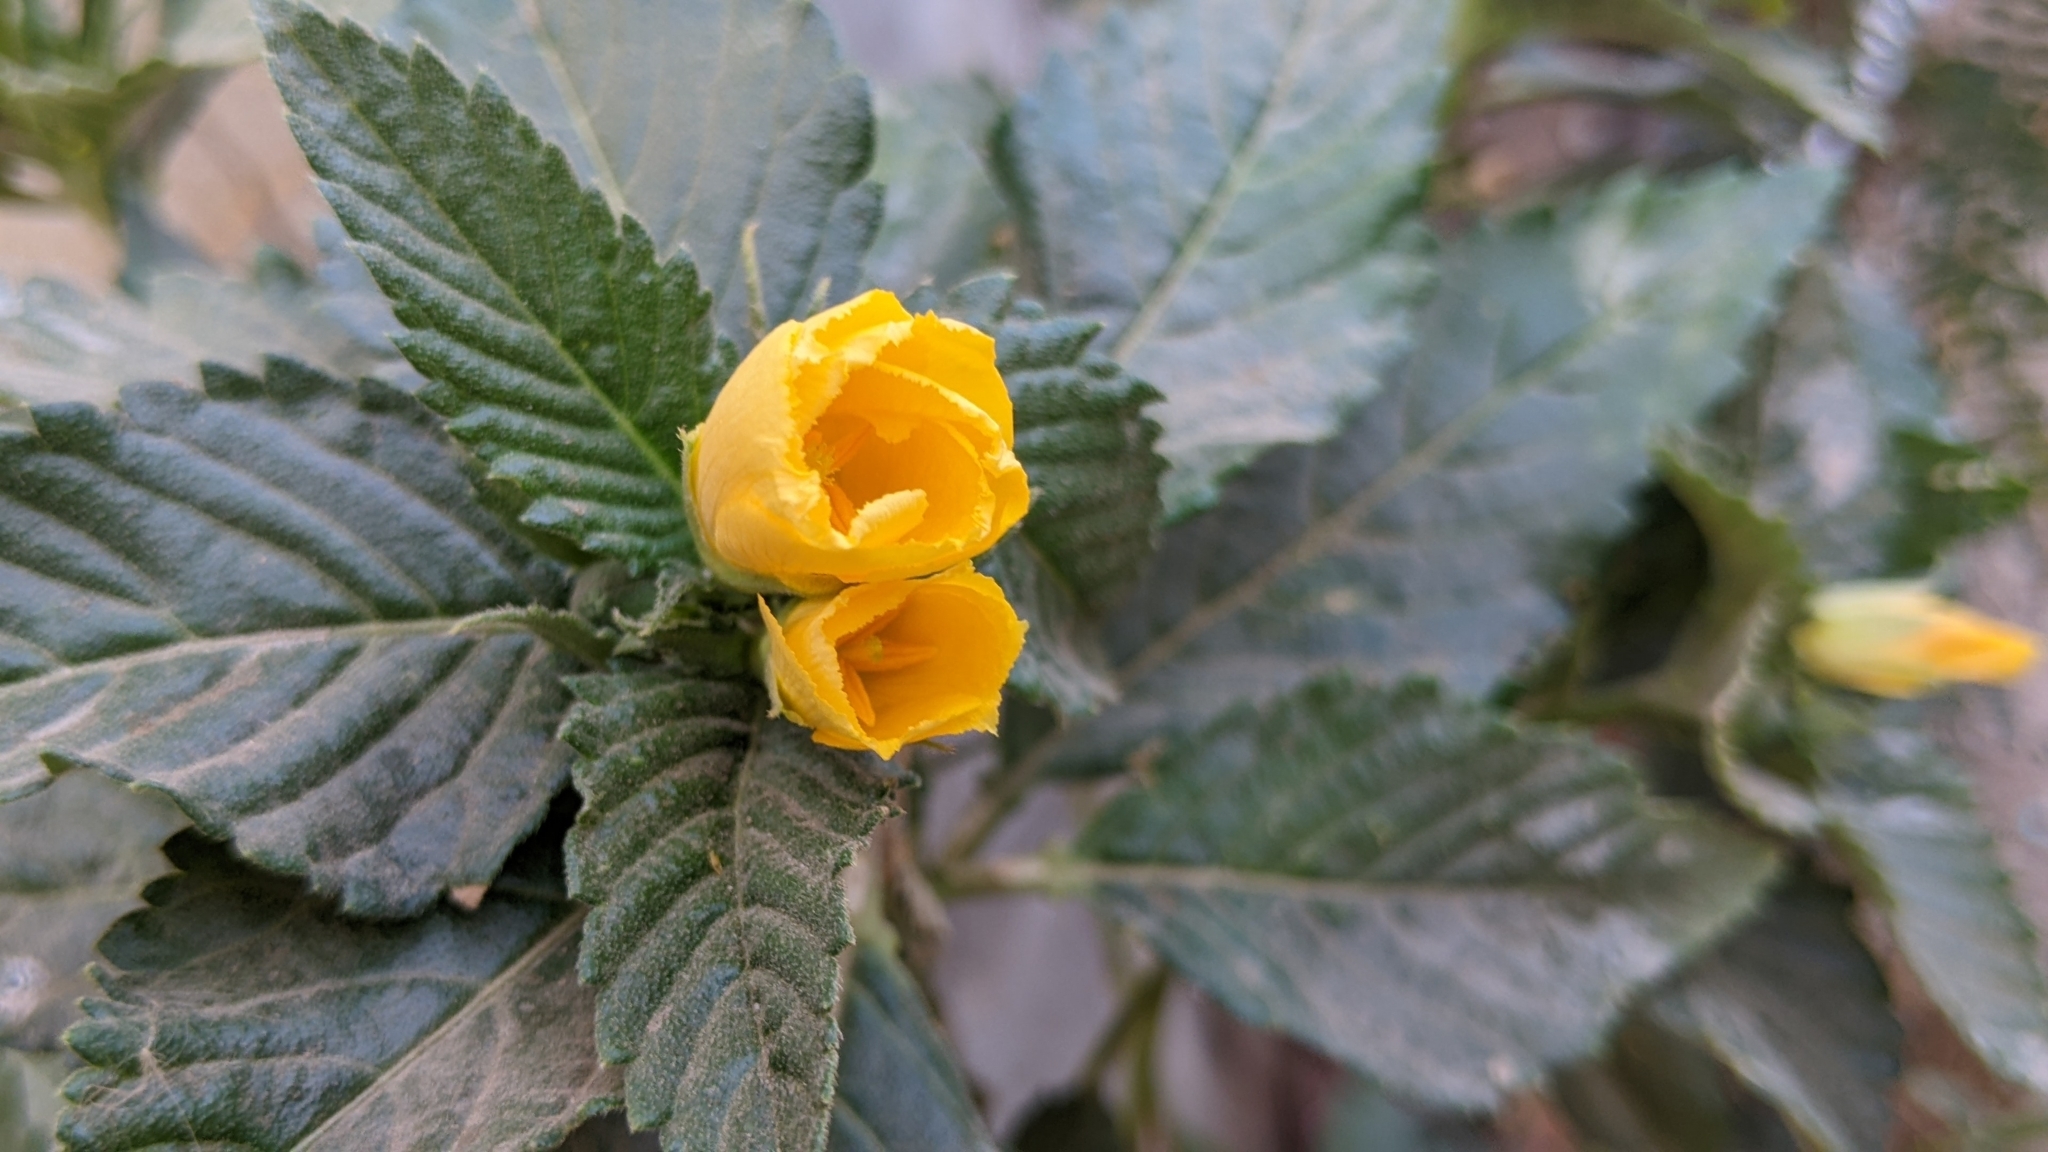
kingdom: Plantae
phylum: Tracheophyta
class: Magnoliopsida
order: Malpighiales
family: Turneraceae
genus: Turnera
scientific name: Turnera ulmifolia
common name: Ramgoat dashalong
